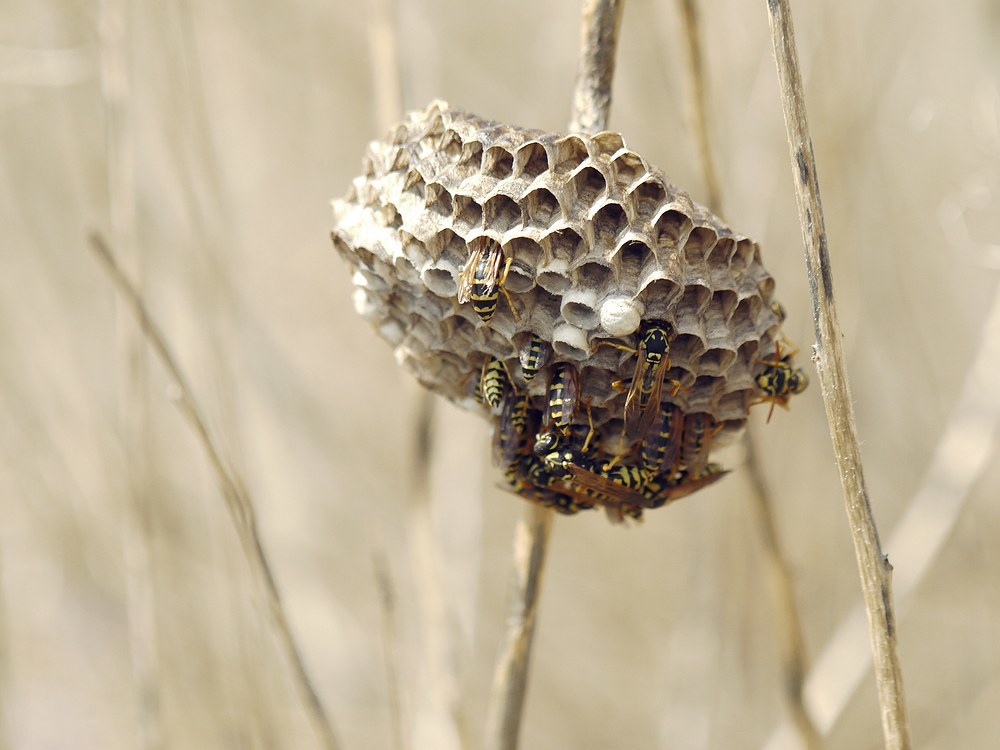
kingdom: Animalia
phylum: Arthropoda
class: Insecta
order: Hymenoptera
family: Eumenidae
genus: Polistes
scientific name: Polistes dominula
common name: Paper wasp
